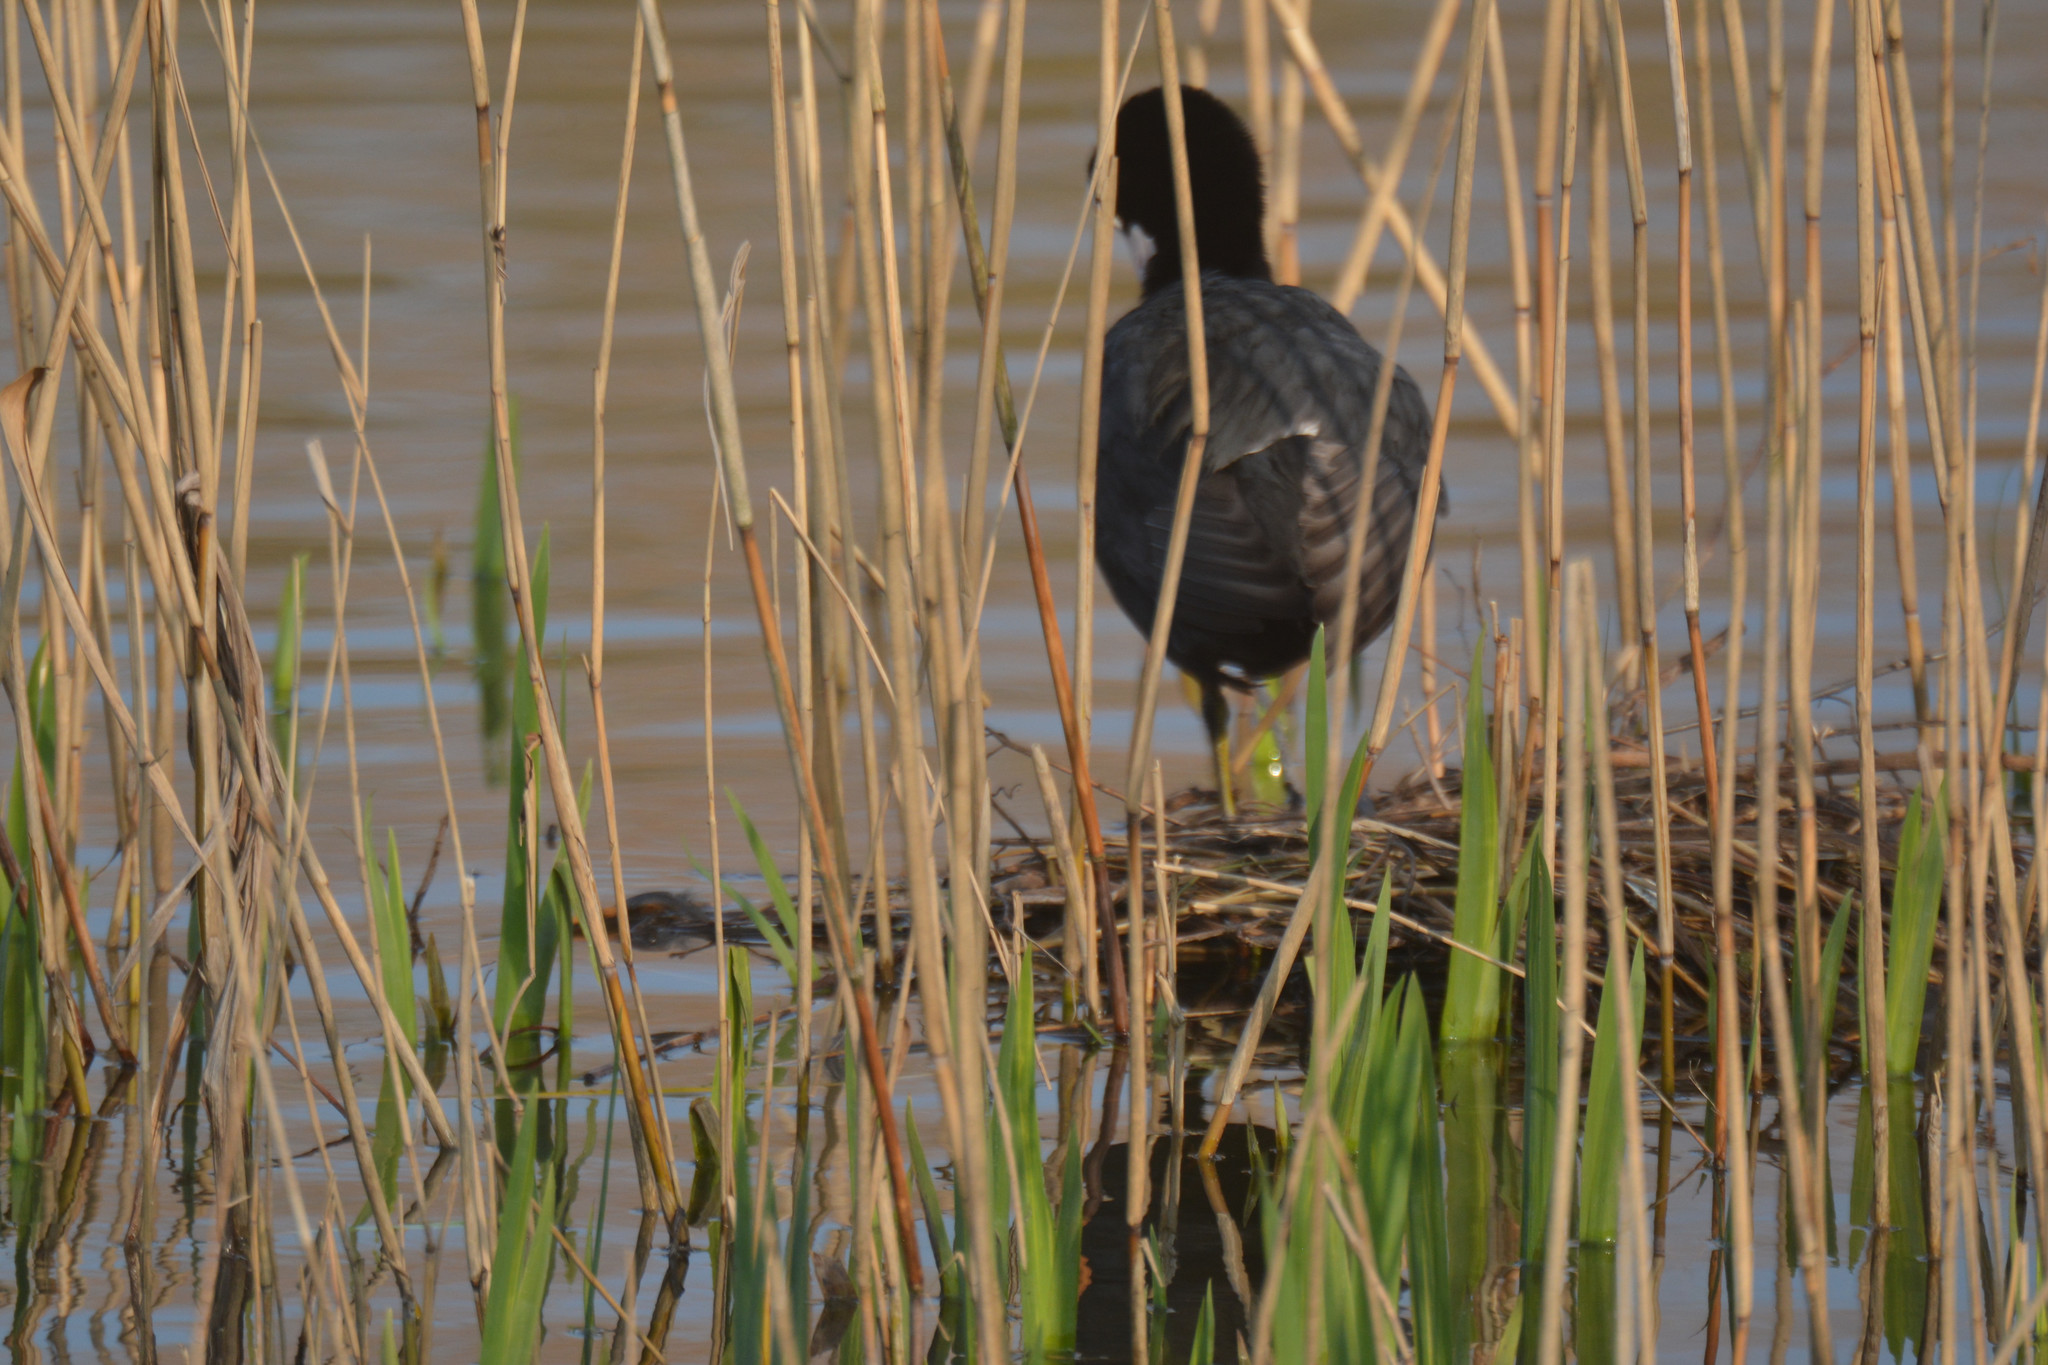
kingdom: Animalia
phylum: Chordata
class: Aves
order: Gruiformes
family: Rallidae
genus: Fulica
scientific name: Fulica atra
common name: Eurasian coot
